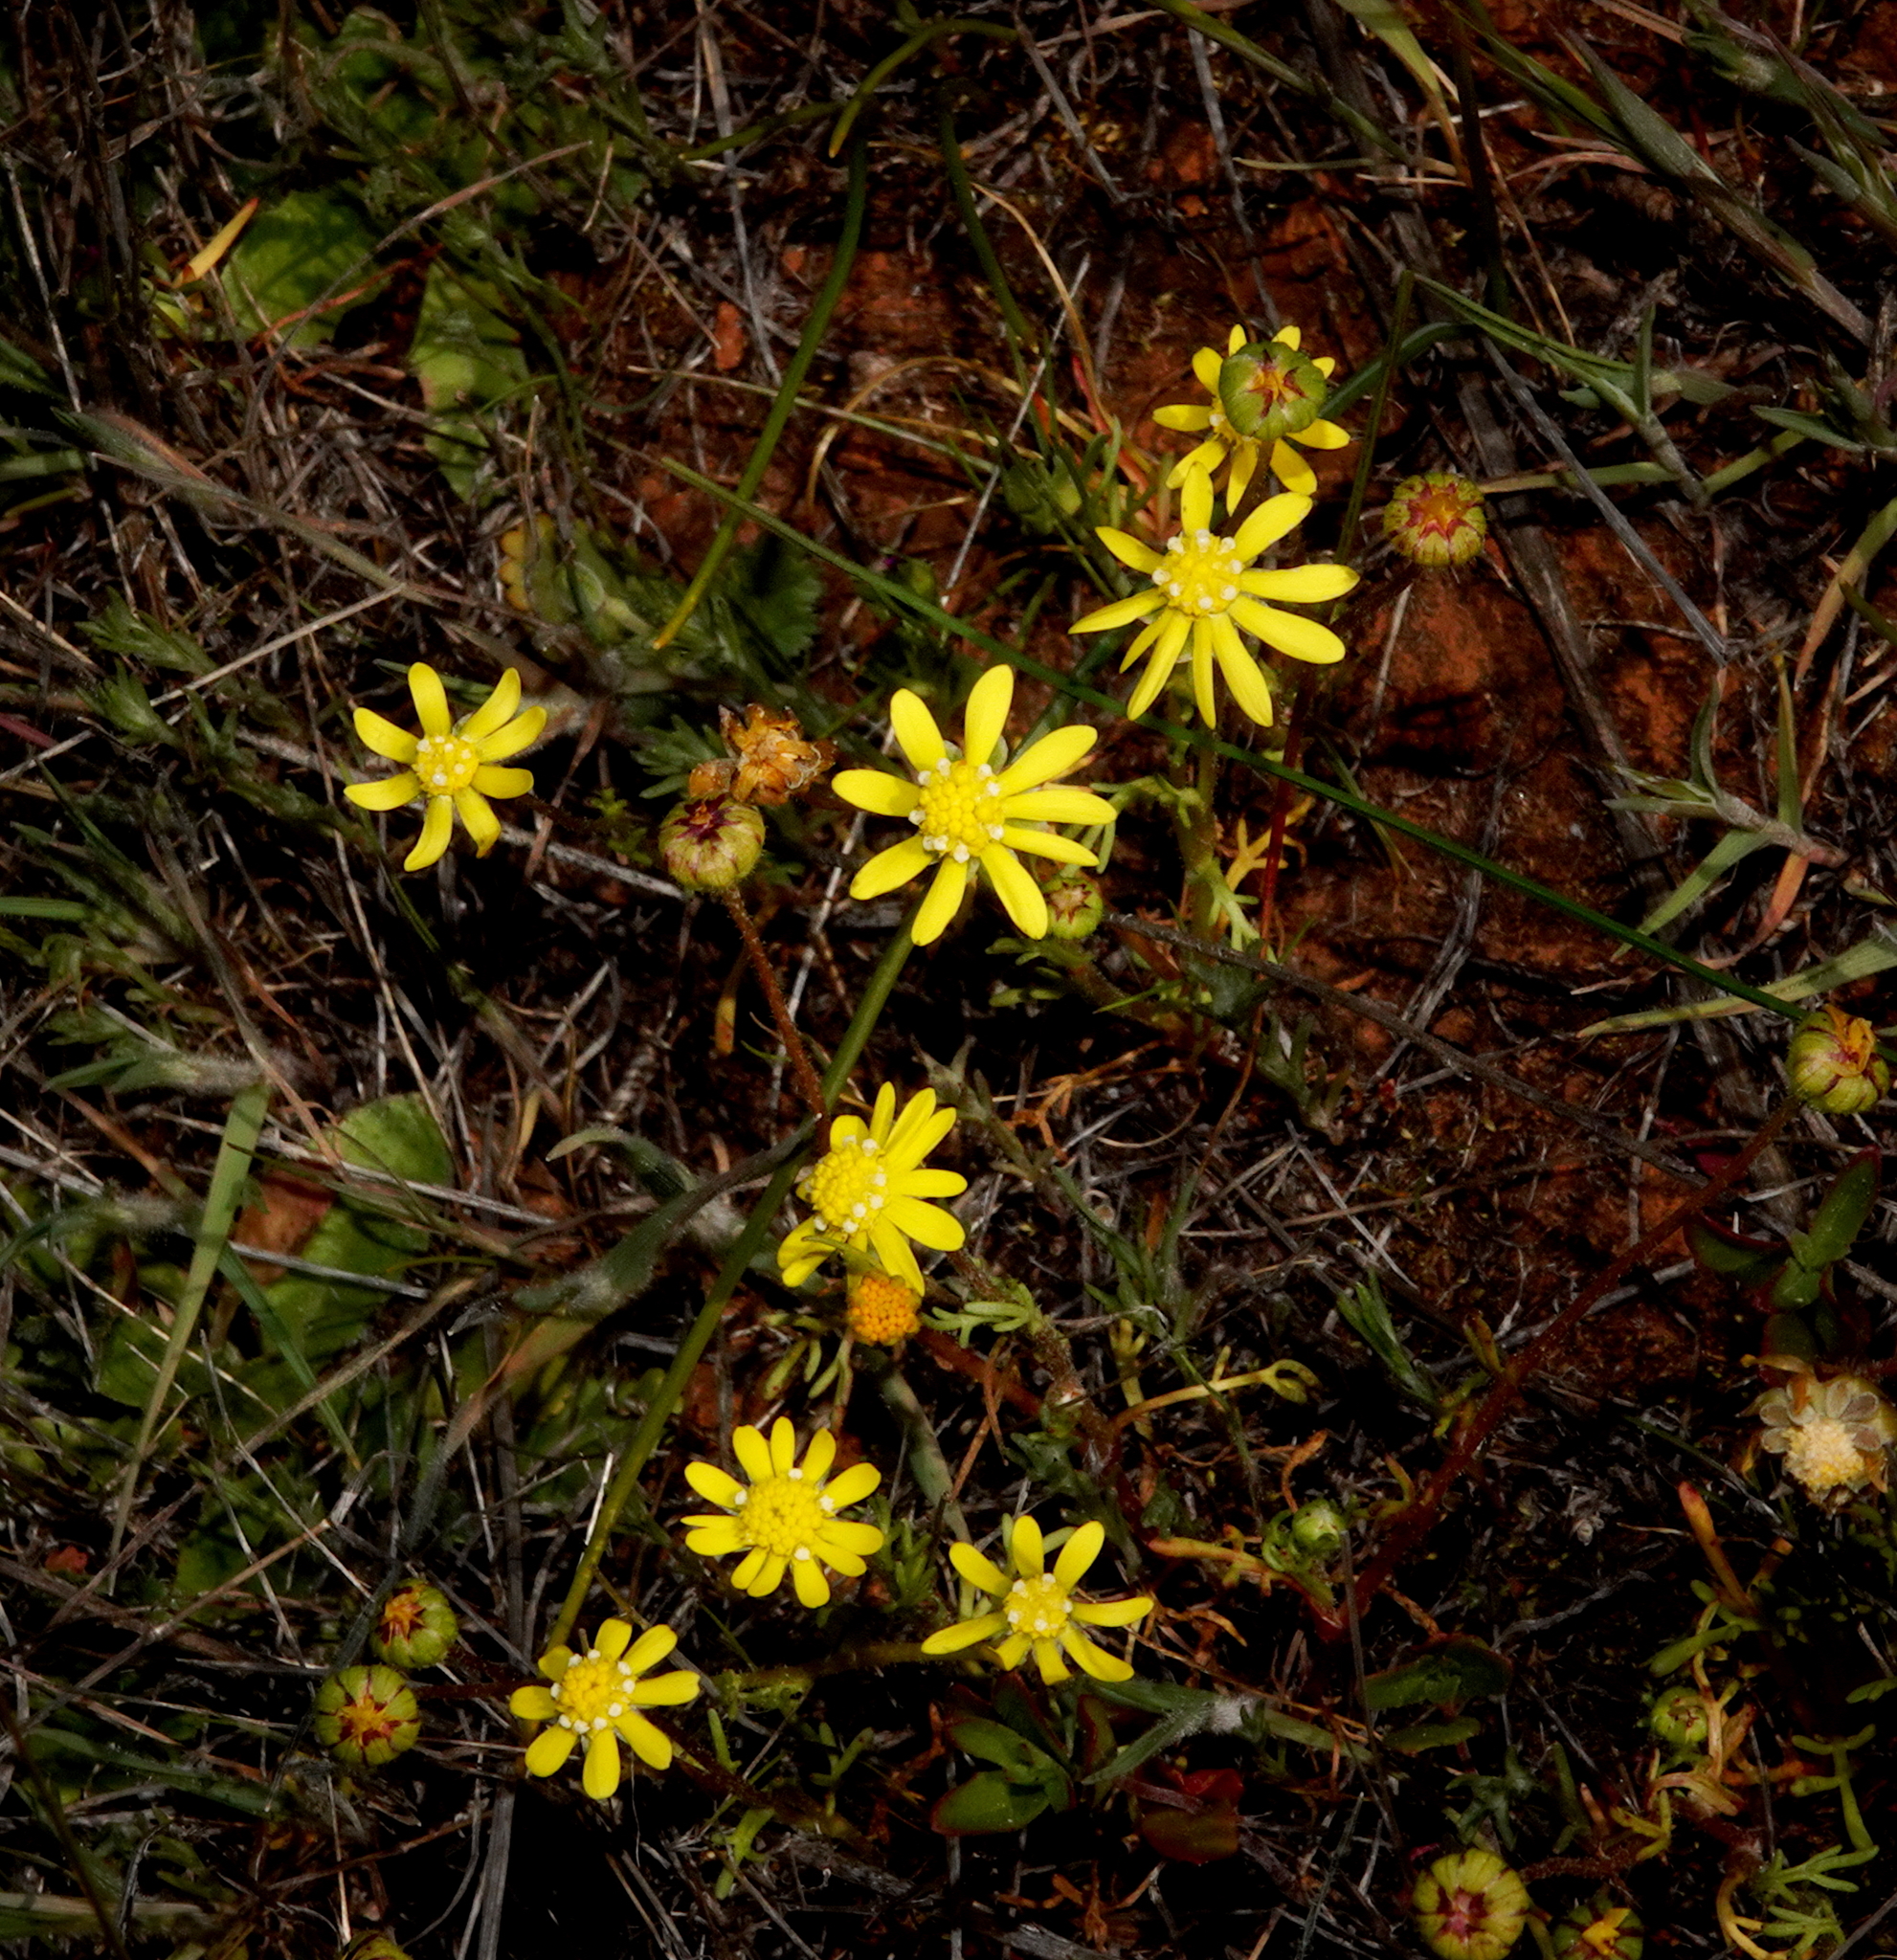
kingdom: Plantae
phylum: Tracheophyta
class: Magnoliopsida
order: Asterales
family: Asteraceae
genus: Blennosperma
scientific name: Blennosperma nanum
